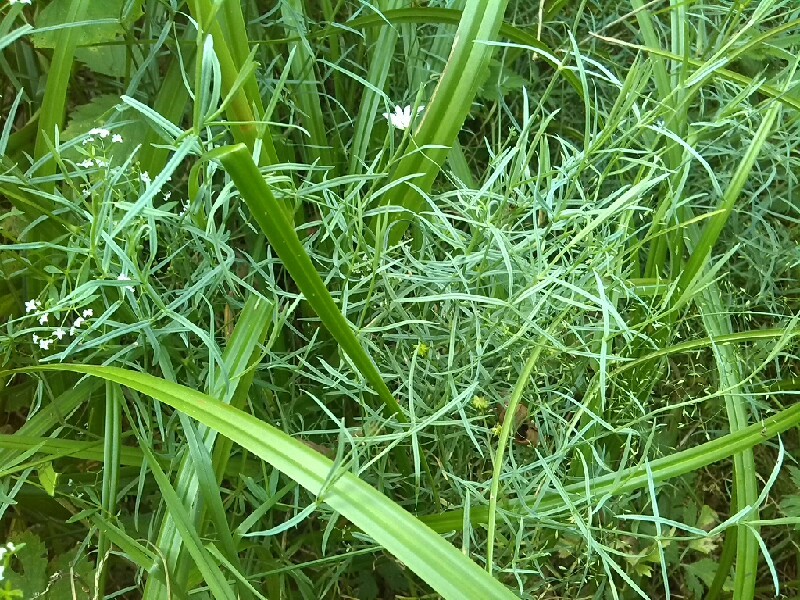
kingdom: Plantae
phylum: Tracheophyta
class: Magnoliopsida
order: Caryophyllales
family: Caryophyllaceae
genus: Stellaria
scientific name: Stellaria palustris
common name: Marsh stitchwort
